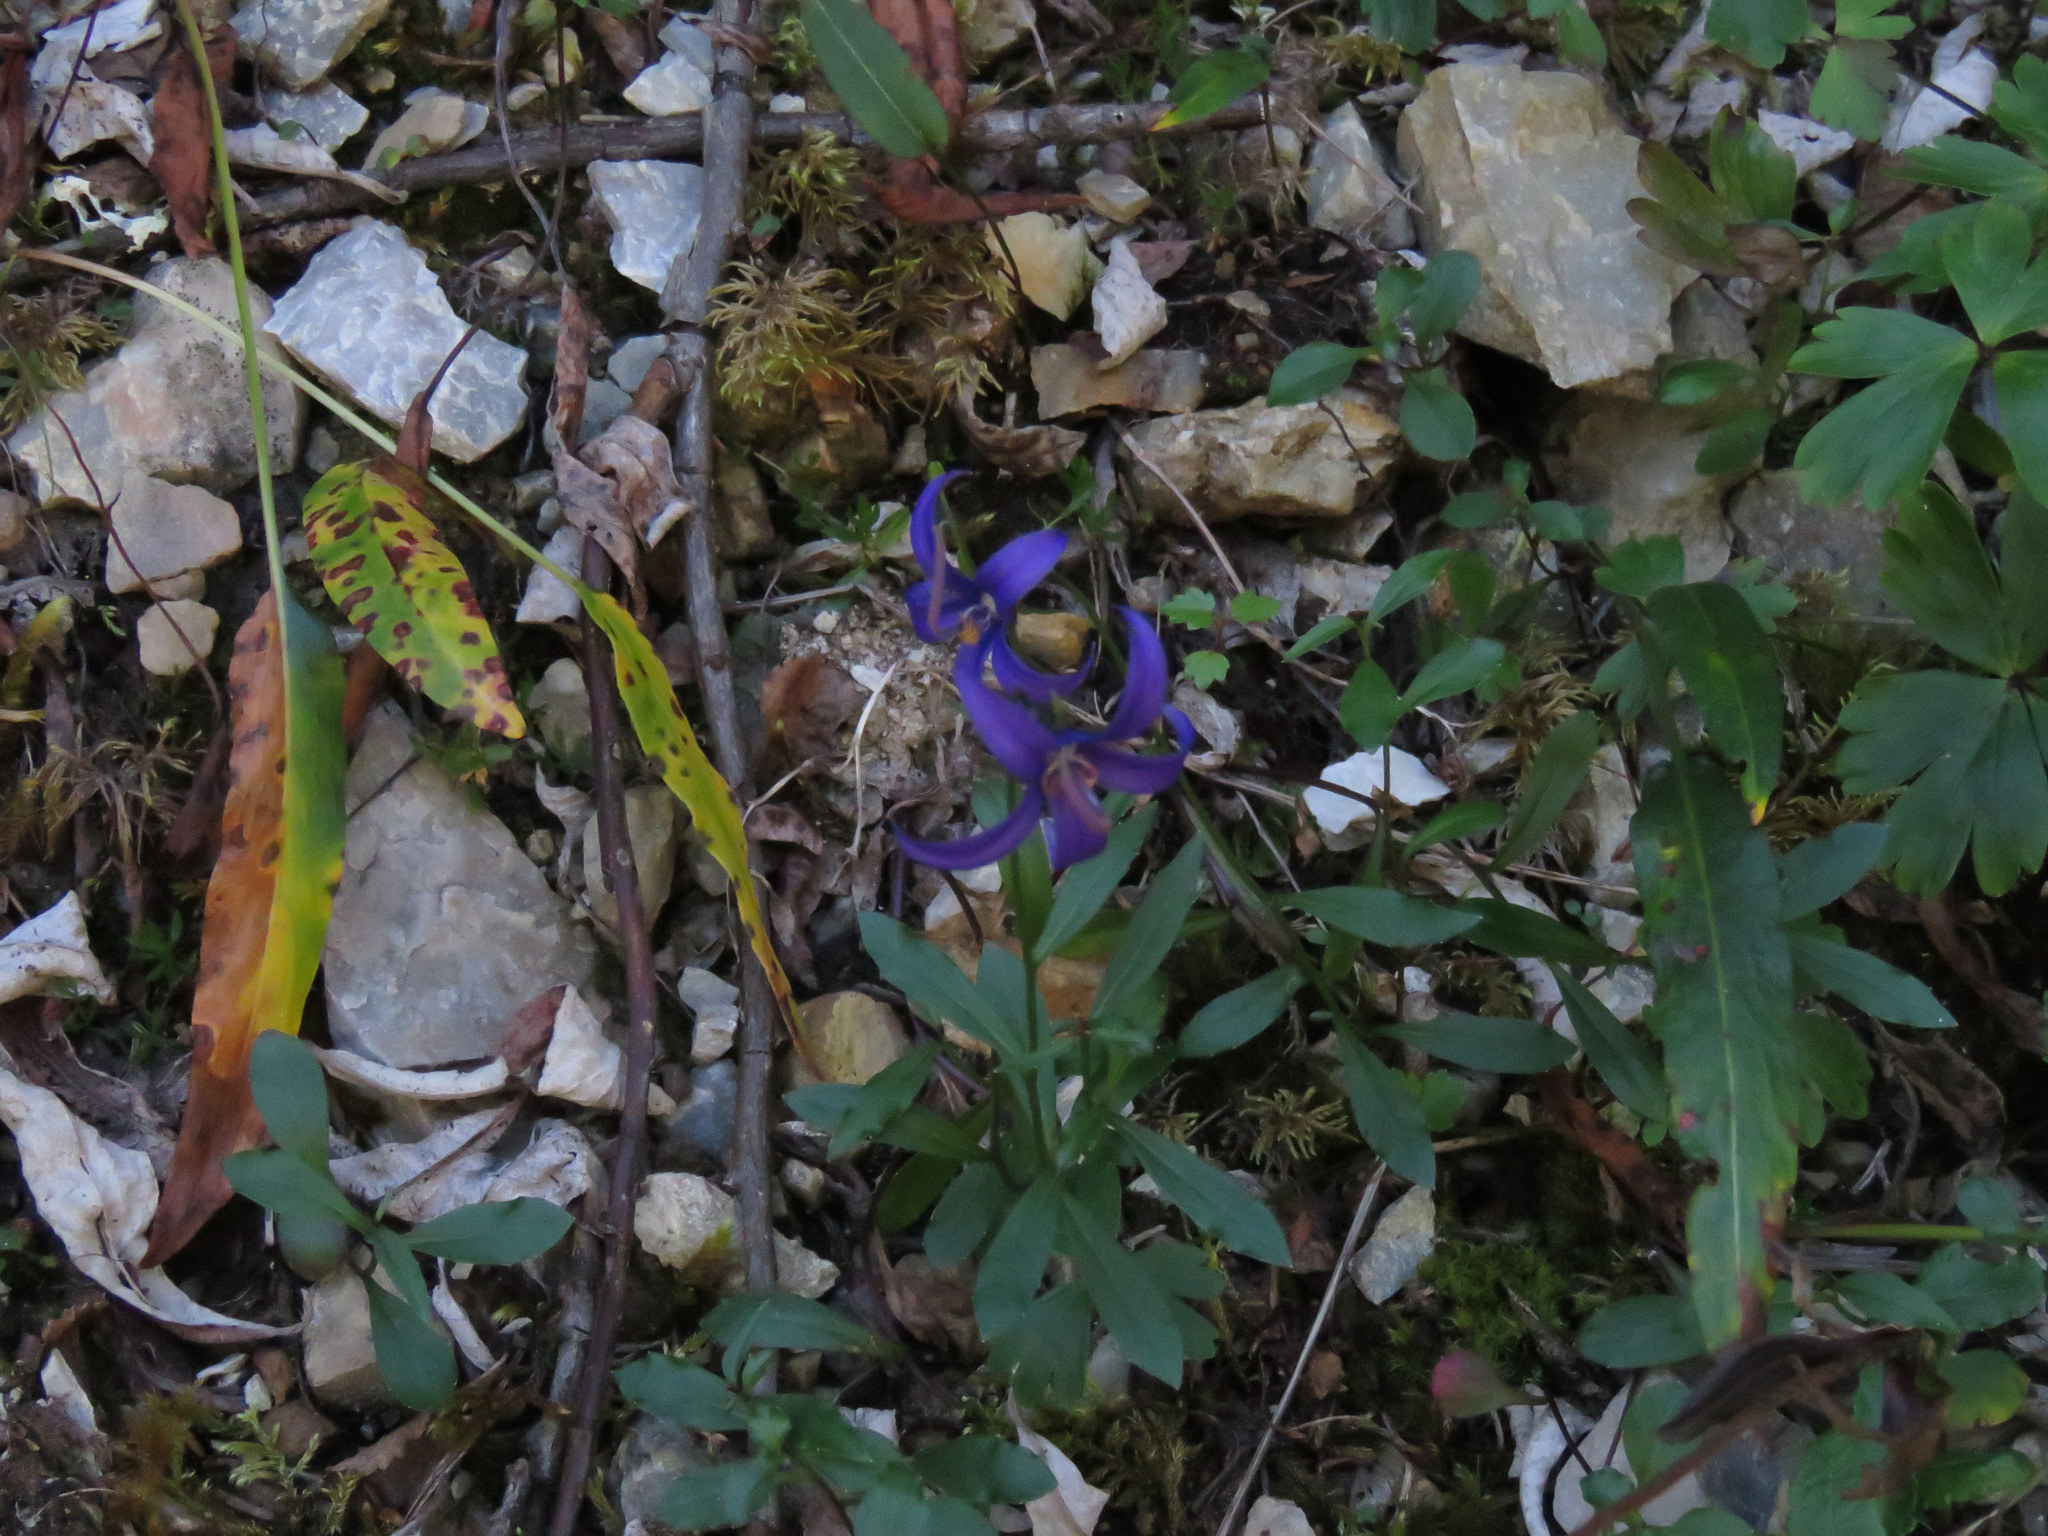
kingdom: Plantae
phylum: Tracheophyta
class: Magnoliopsida
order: Asterales
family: Campanulaceae
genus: Campanula
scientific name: Campanula aurita
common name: Yukon bellflower
